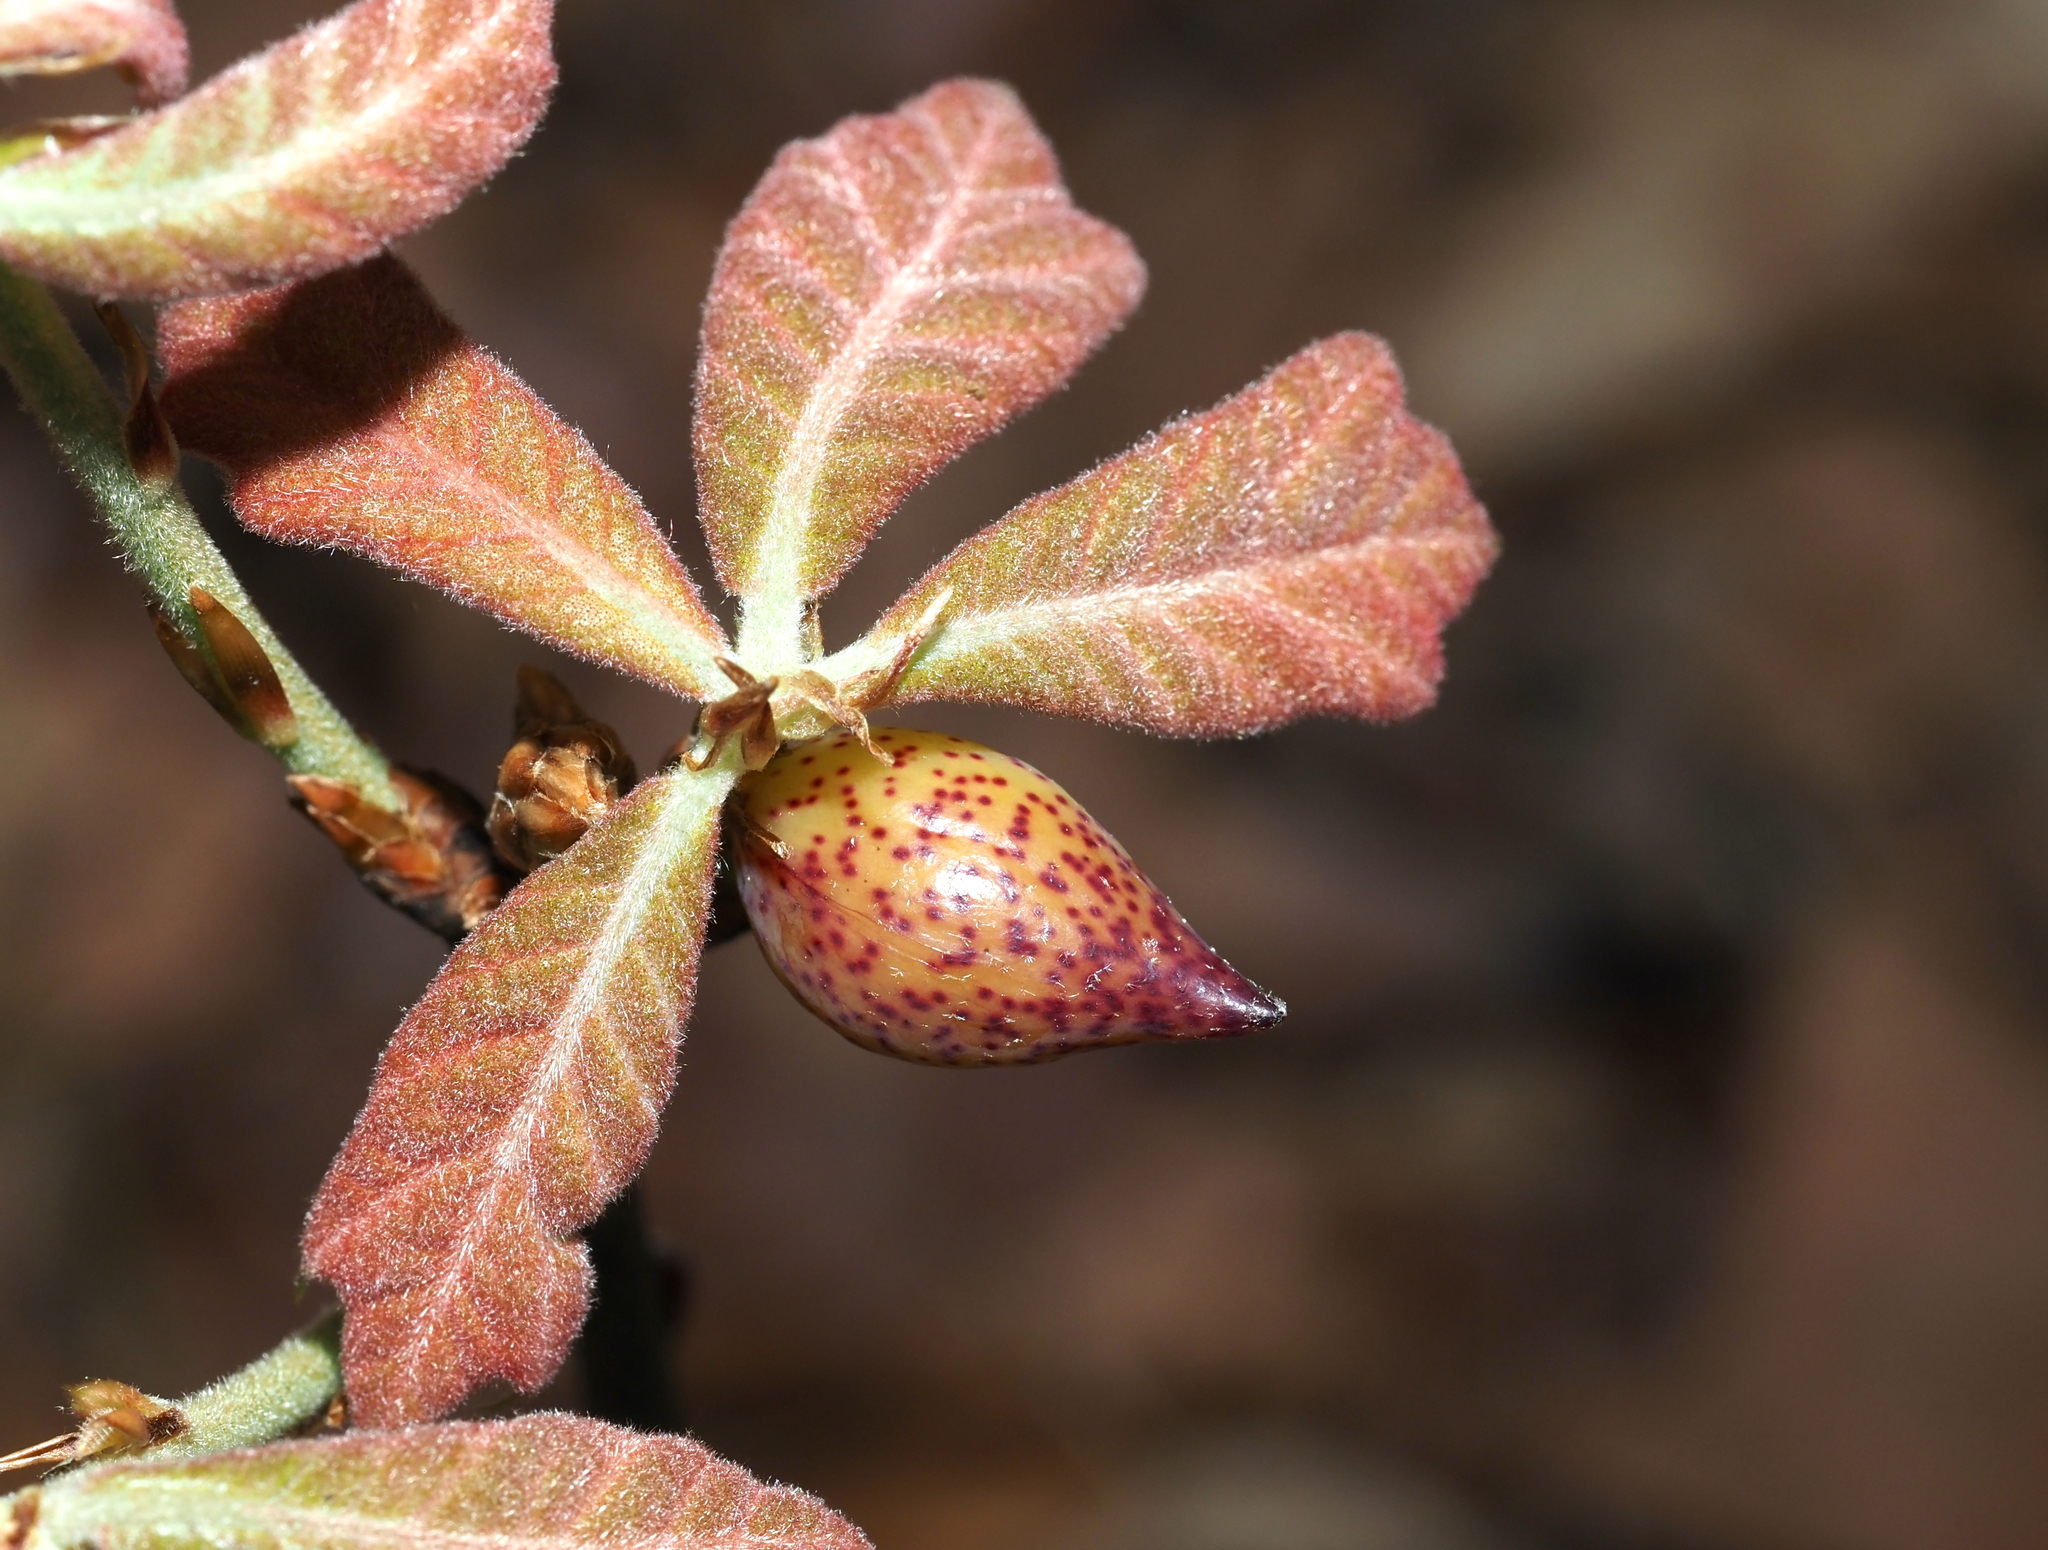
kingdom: Animalia
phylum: Arthropoda
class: Insecta
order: Hymenoptera
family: Cynipidae
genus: Amphibolips
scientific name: Amphibolips
